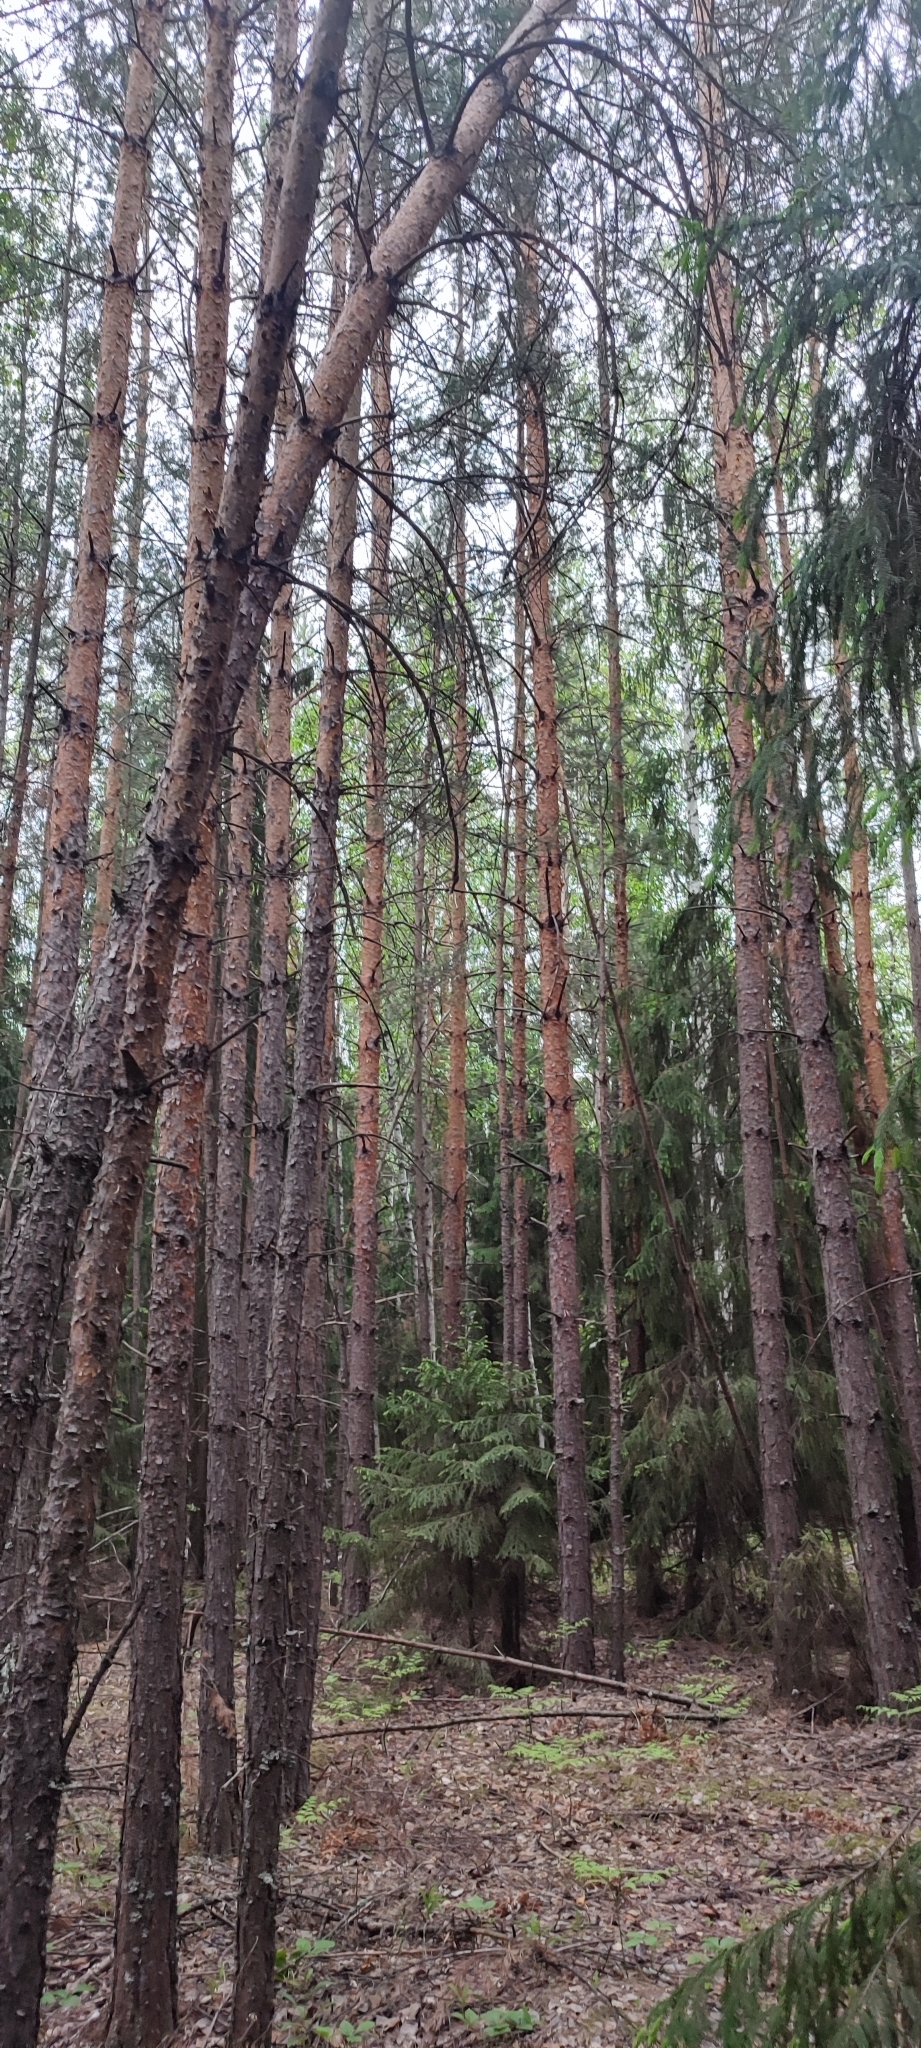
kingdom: Plantae
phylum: Tracheophyta
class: Pinopsida
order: Pinales
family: Pinaceae
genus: Pinus
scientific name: Pinus sylvestris
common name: Scots pine
